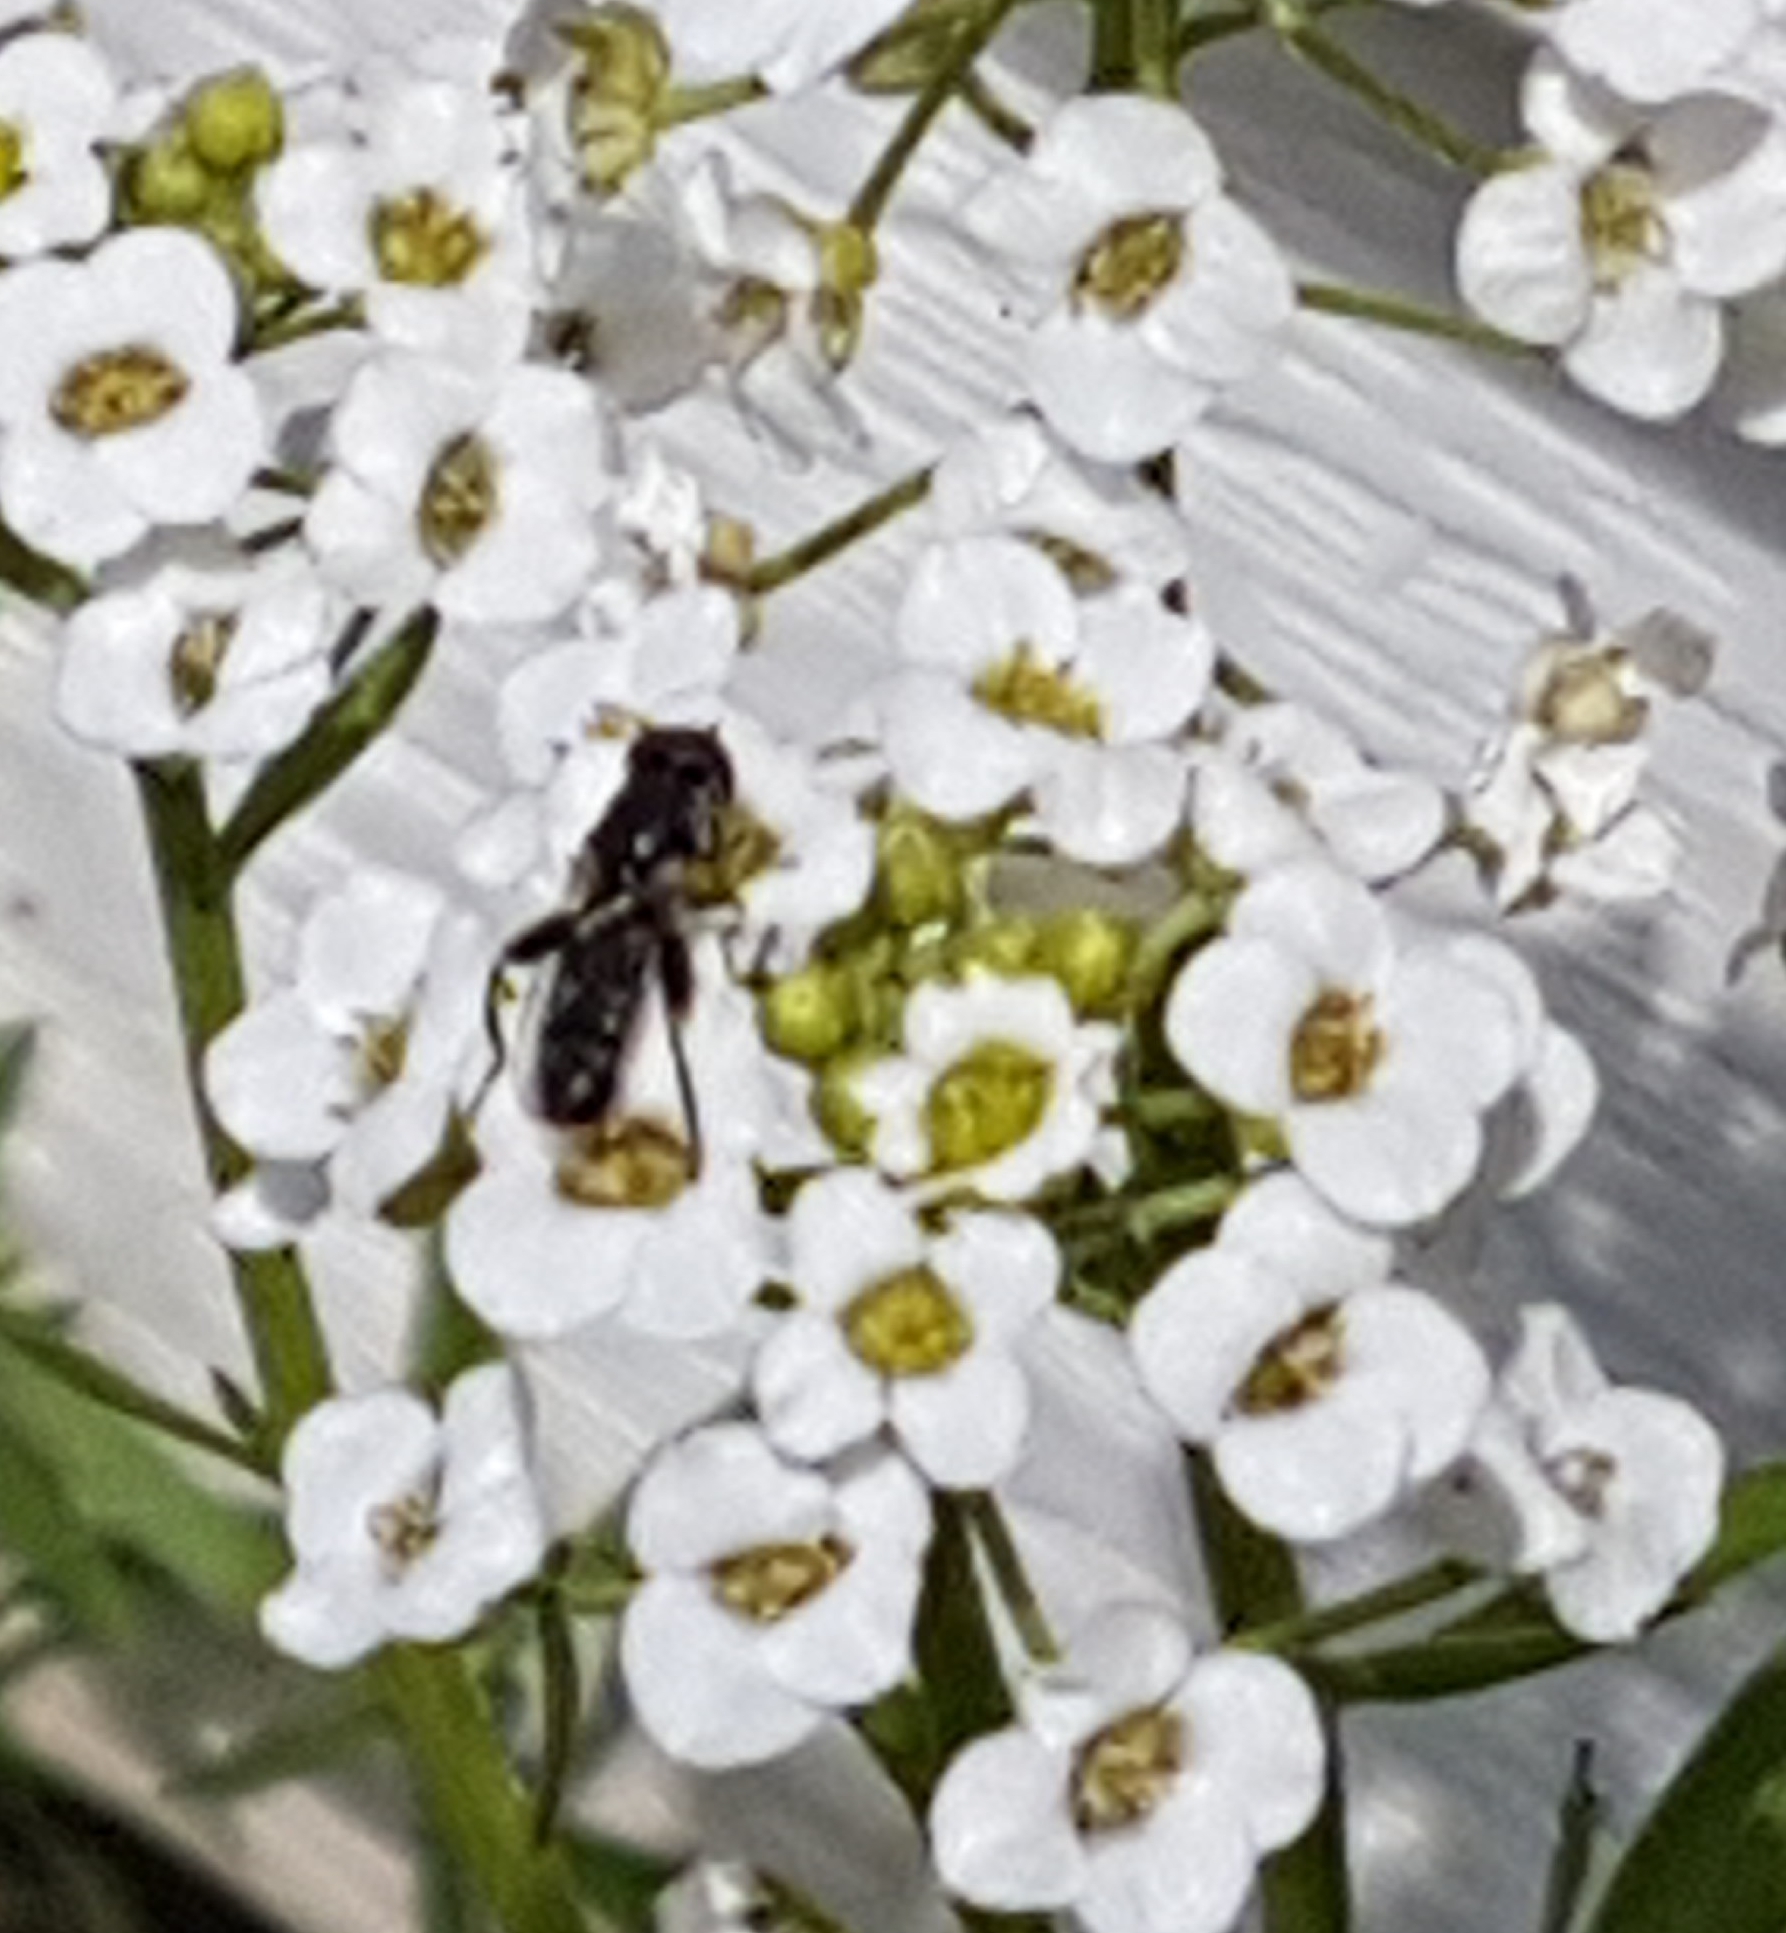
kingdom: Animalia
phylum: Arthropoda
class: Insecta
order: Diptera
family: Syrphidae
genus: Syritta
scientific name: Syritta pipiens
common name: Hover fly
